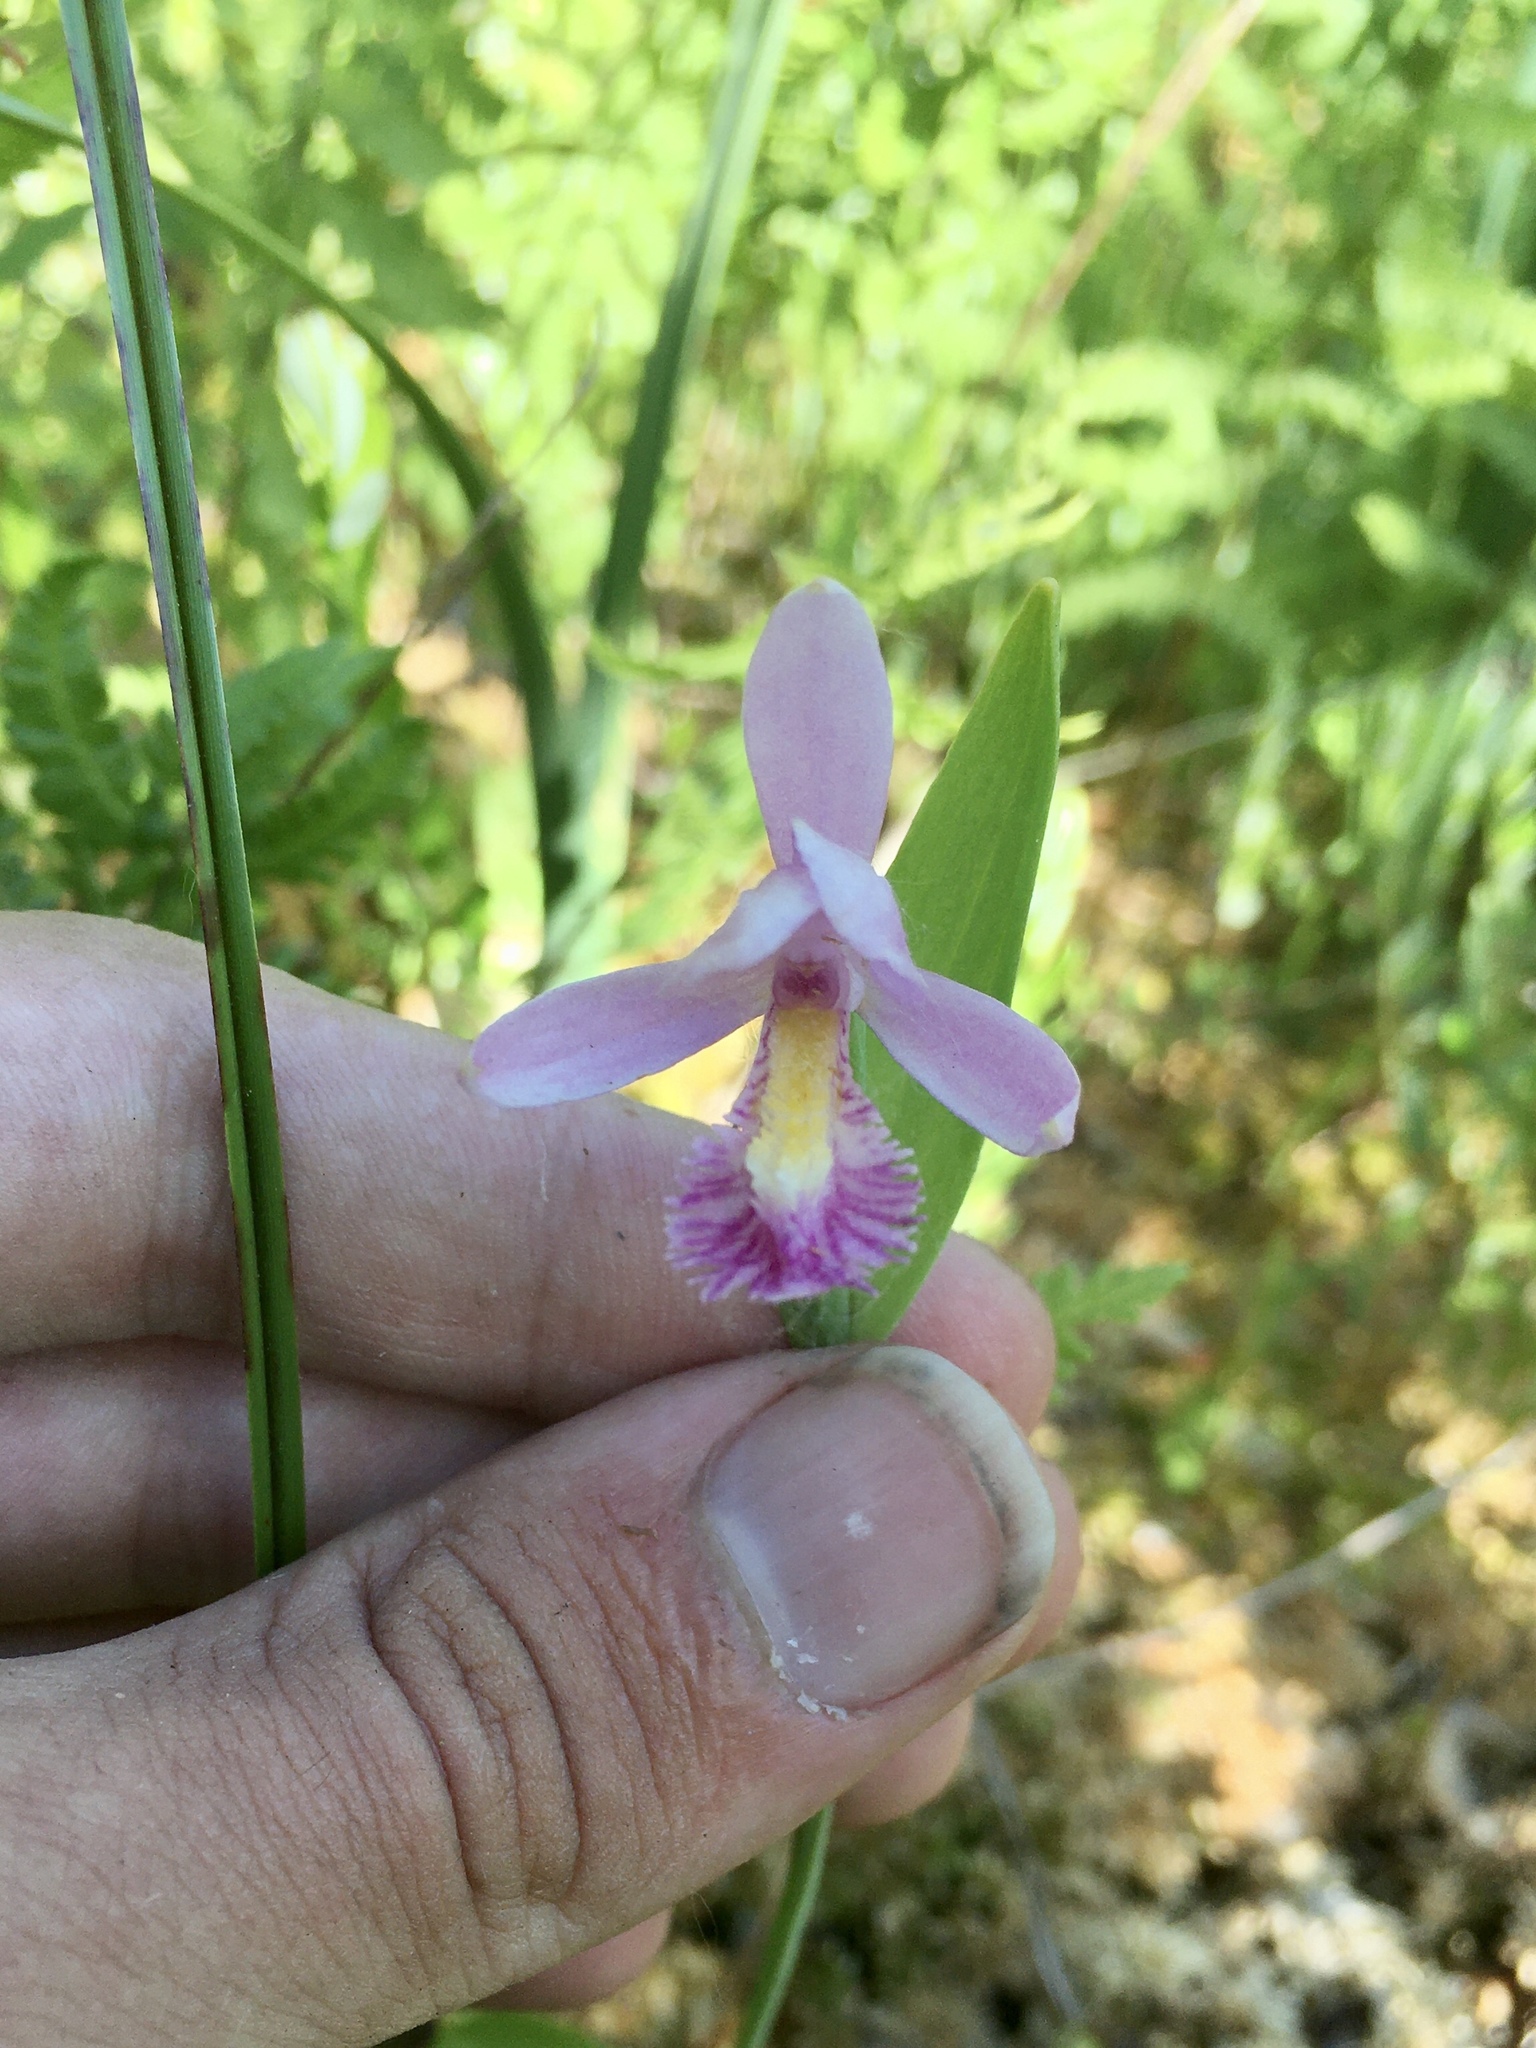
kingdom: Plantae
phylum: Tracheophyta
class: Liliopsida
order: Asparagales
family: Orchidaceae
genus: Pogonia
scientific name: Pogonia ophioglossoides
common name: Rose pogonia
